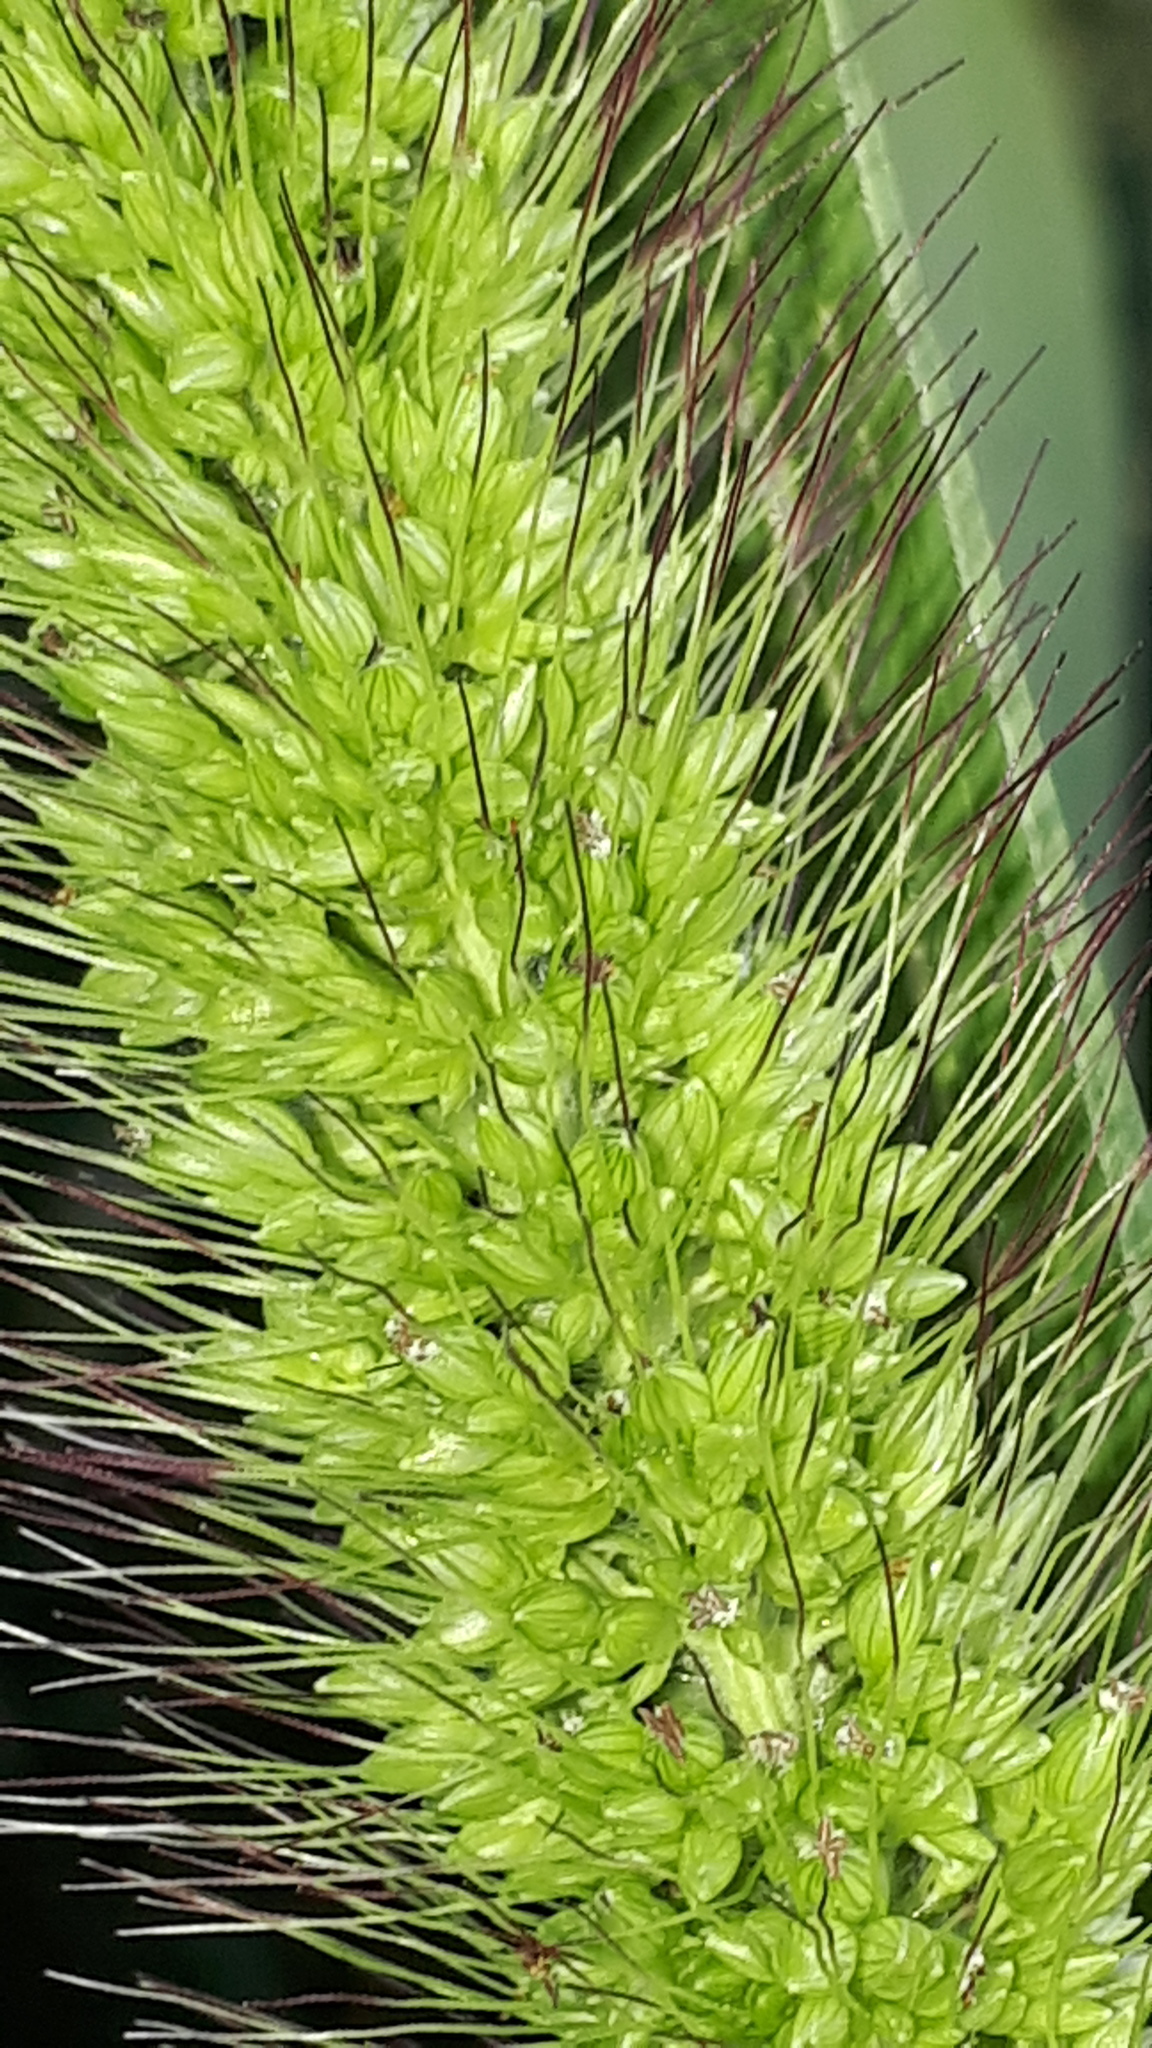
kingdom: Plantae
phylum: Tracheophyta
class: Liliopsida
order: Poales
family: Poaceae
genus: Setaria
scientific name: Setaria viridis
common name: Green bristlegrass
